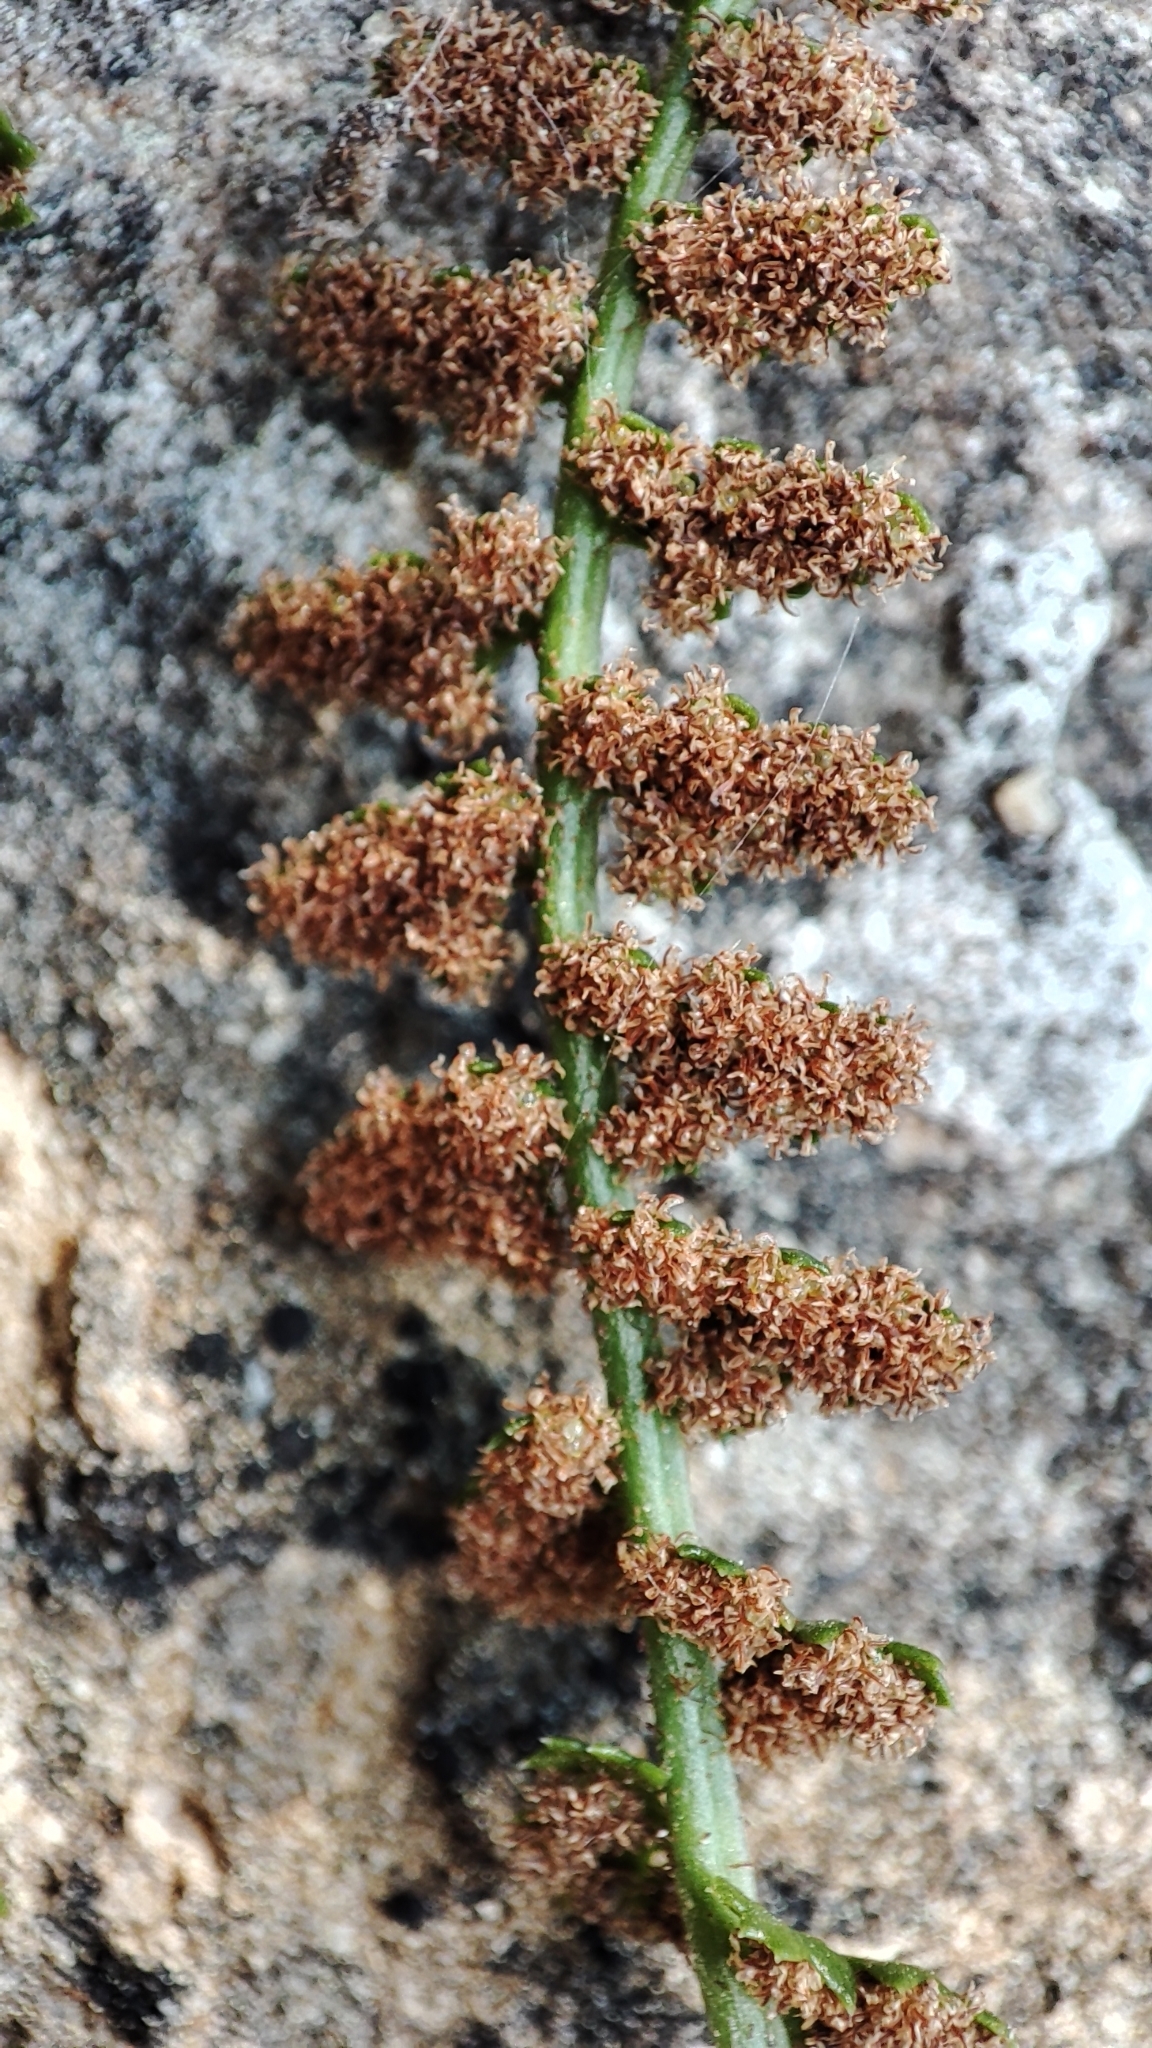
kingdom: Plantae
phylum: Tracheophyta
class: Polypodiopsida
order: Polypodiales
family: Aspleniaceae
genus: Asplenium
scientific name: Asplenium fontanum
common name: Fountain spleenwort
